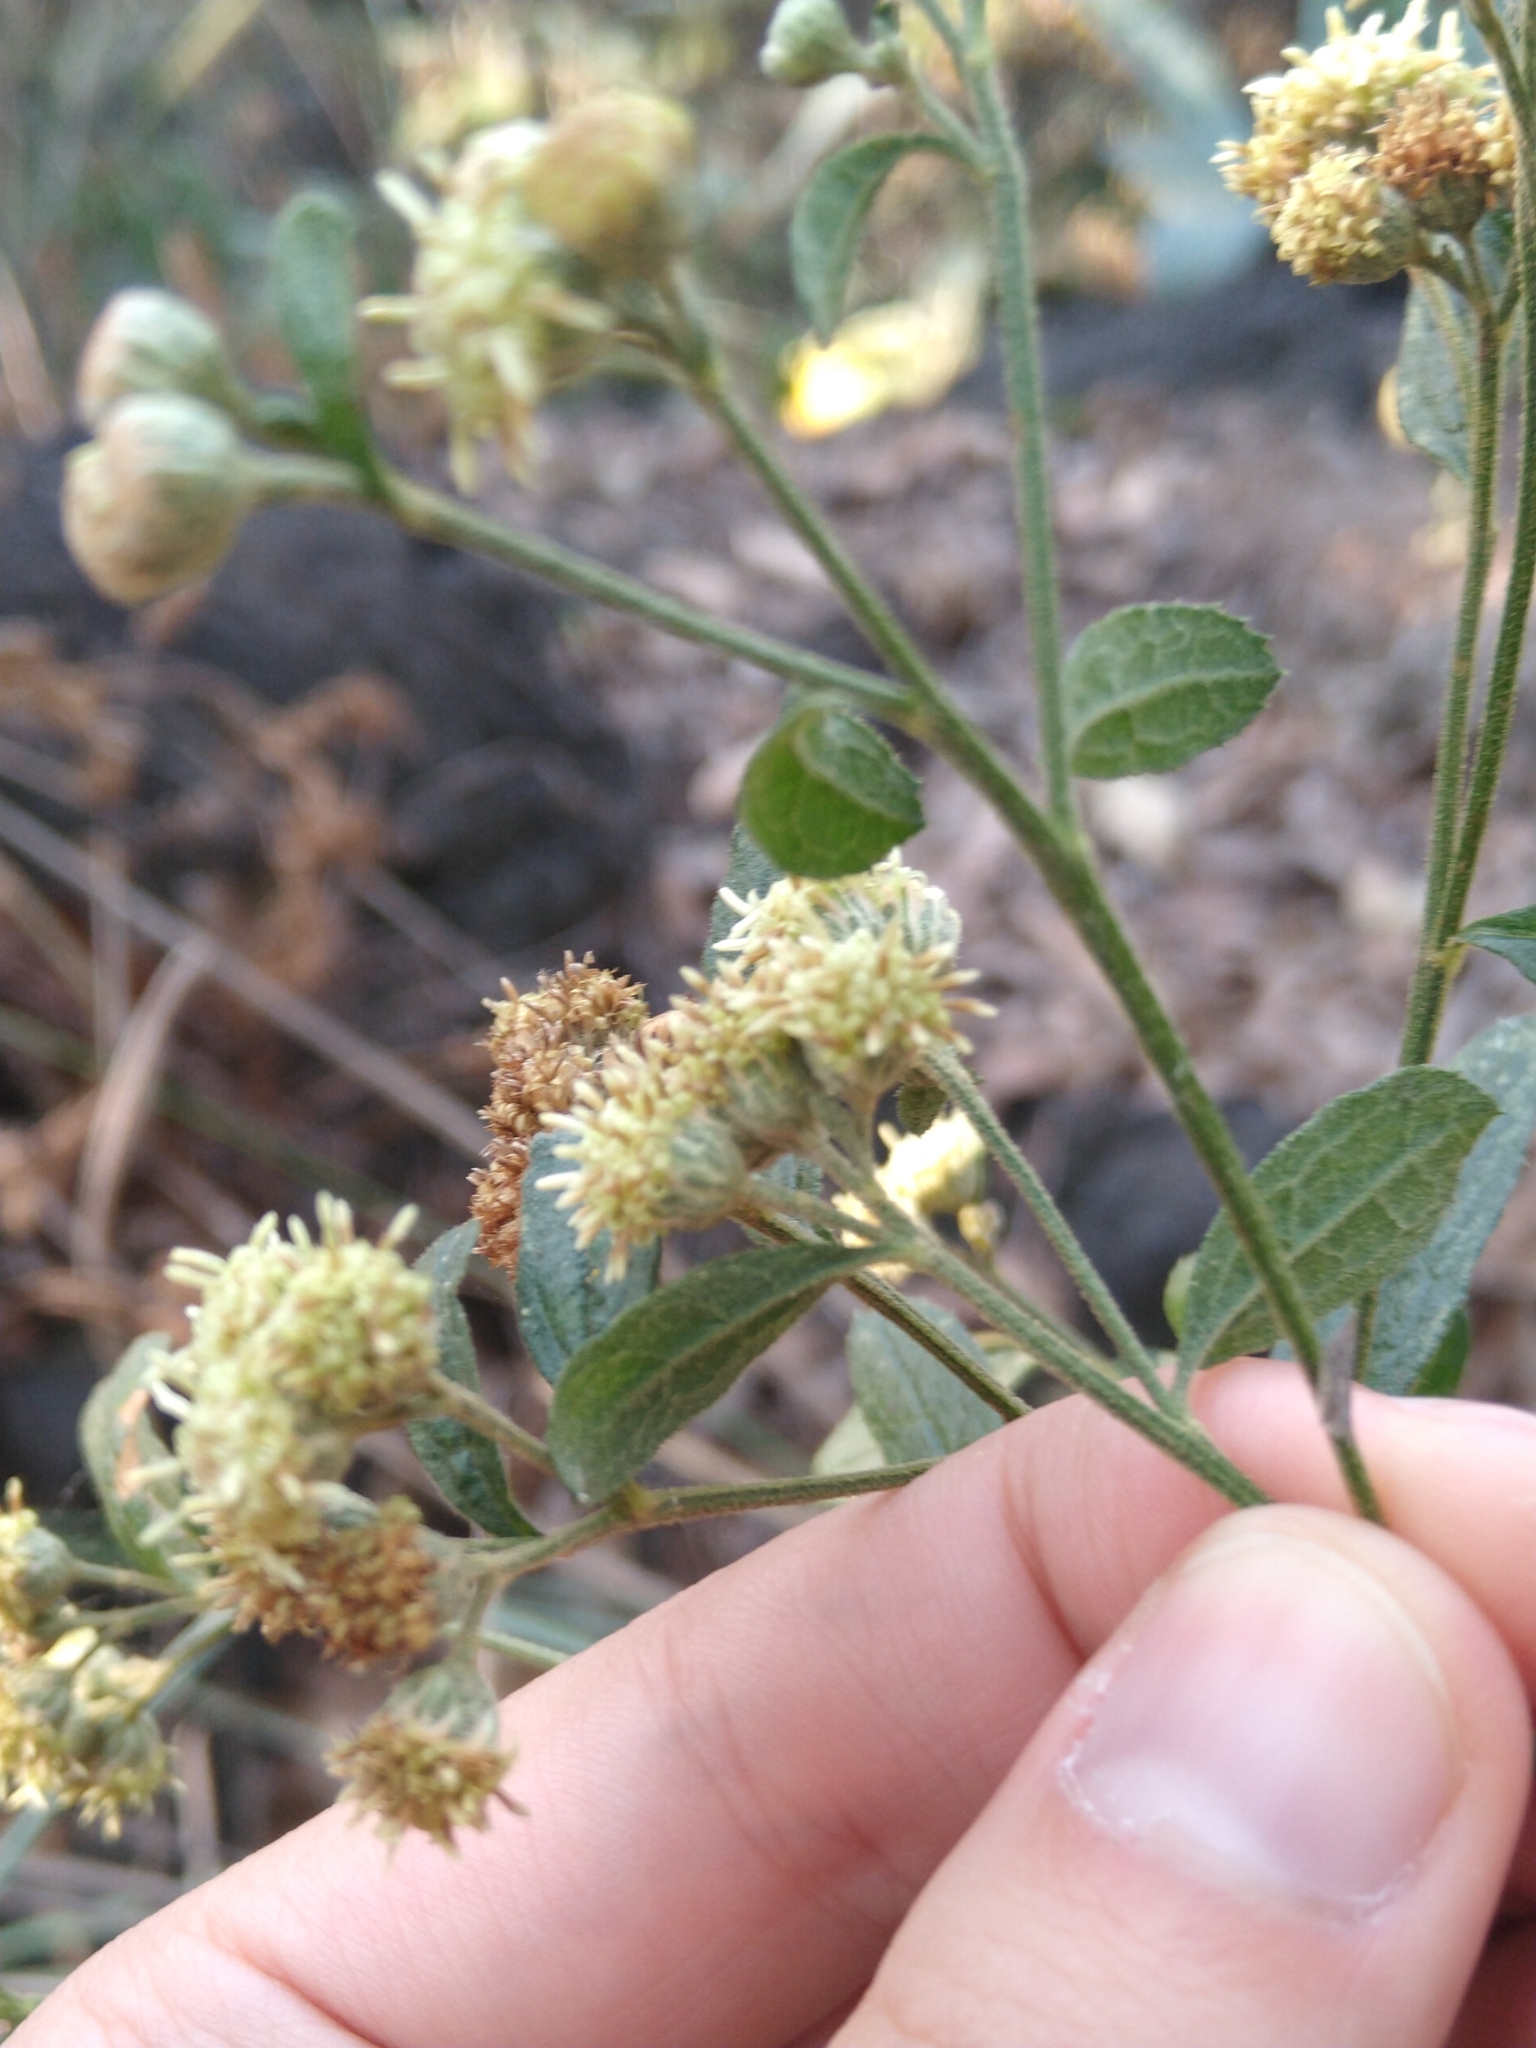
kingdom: Plantae
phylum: Tracheophyta
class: Magnoliopsida
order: Asterales
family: Asteraceae
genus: Baccharis
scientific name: Baccharis sordescens
